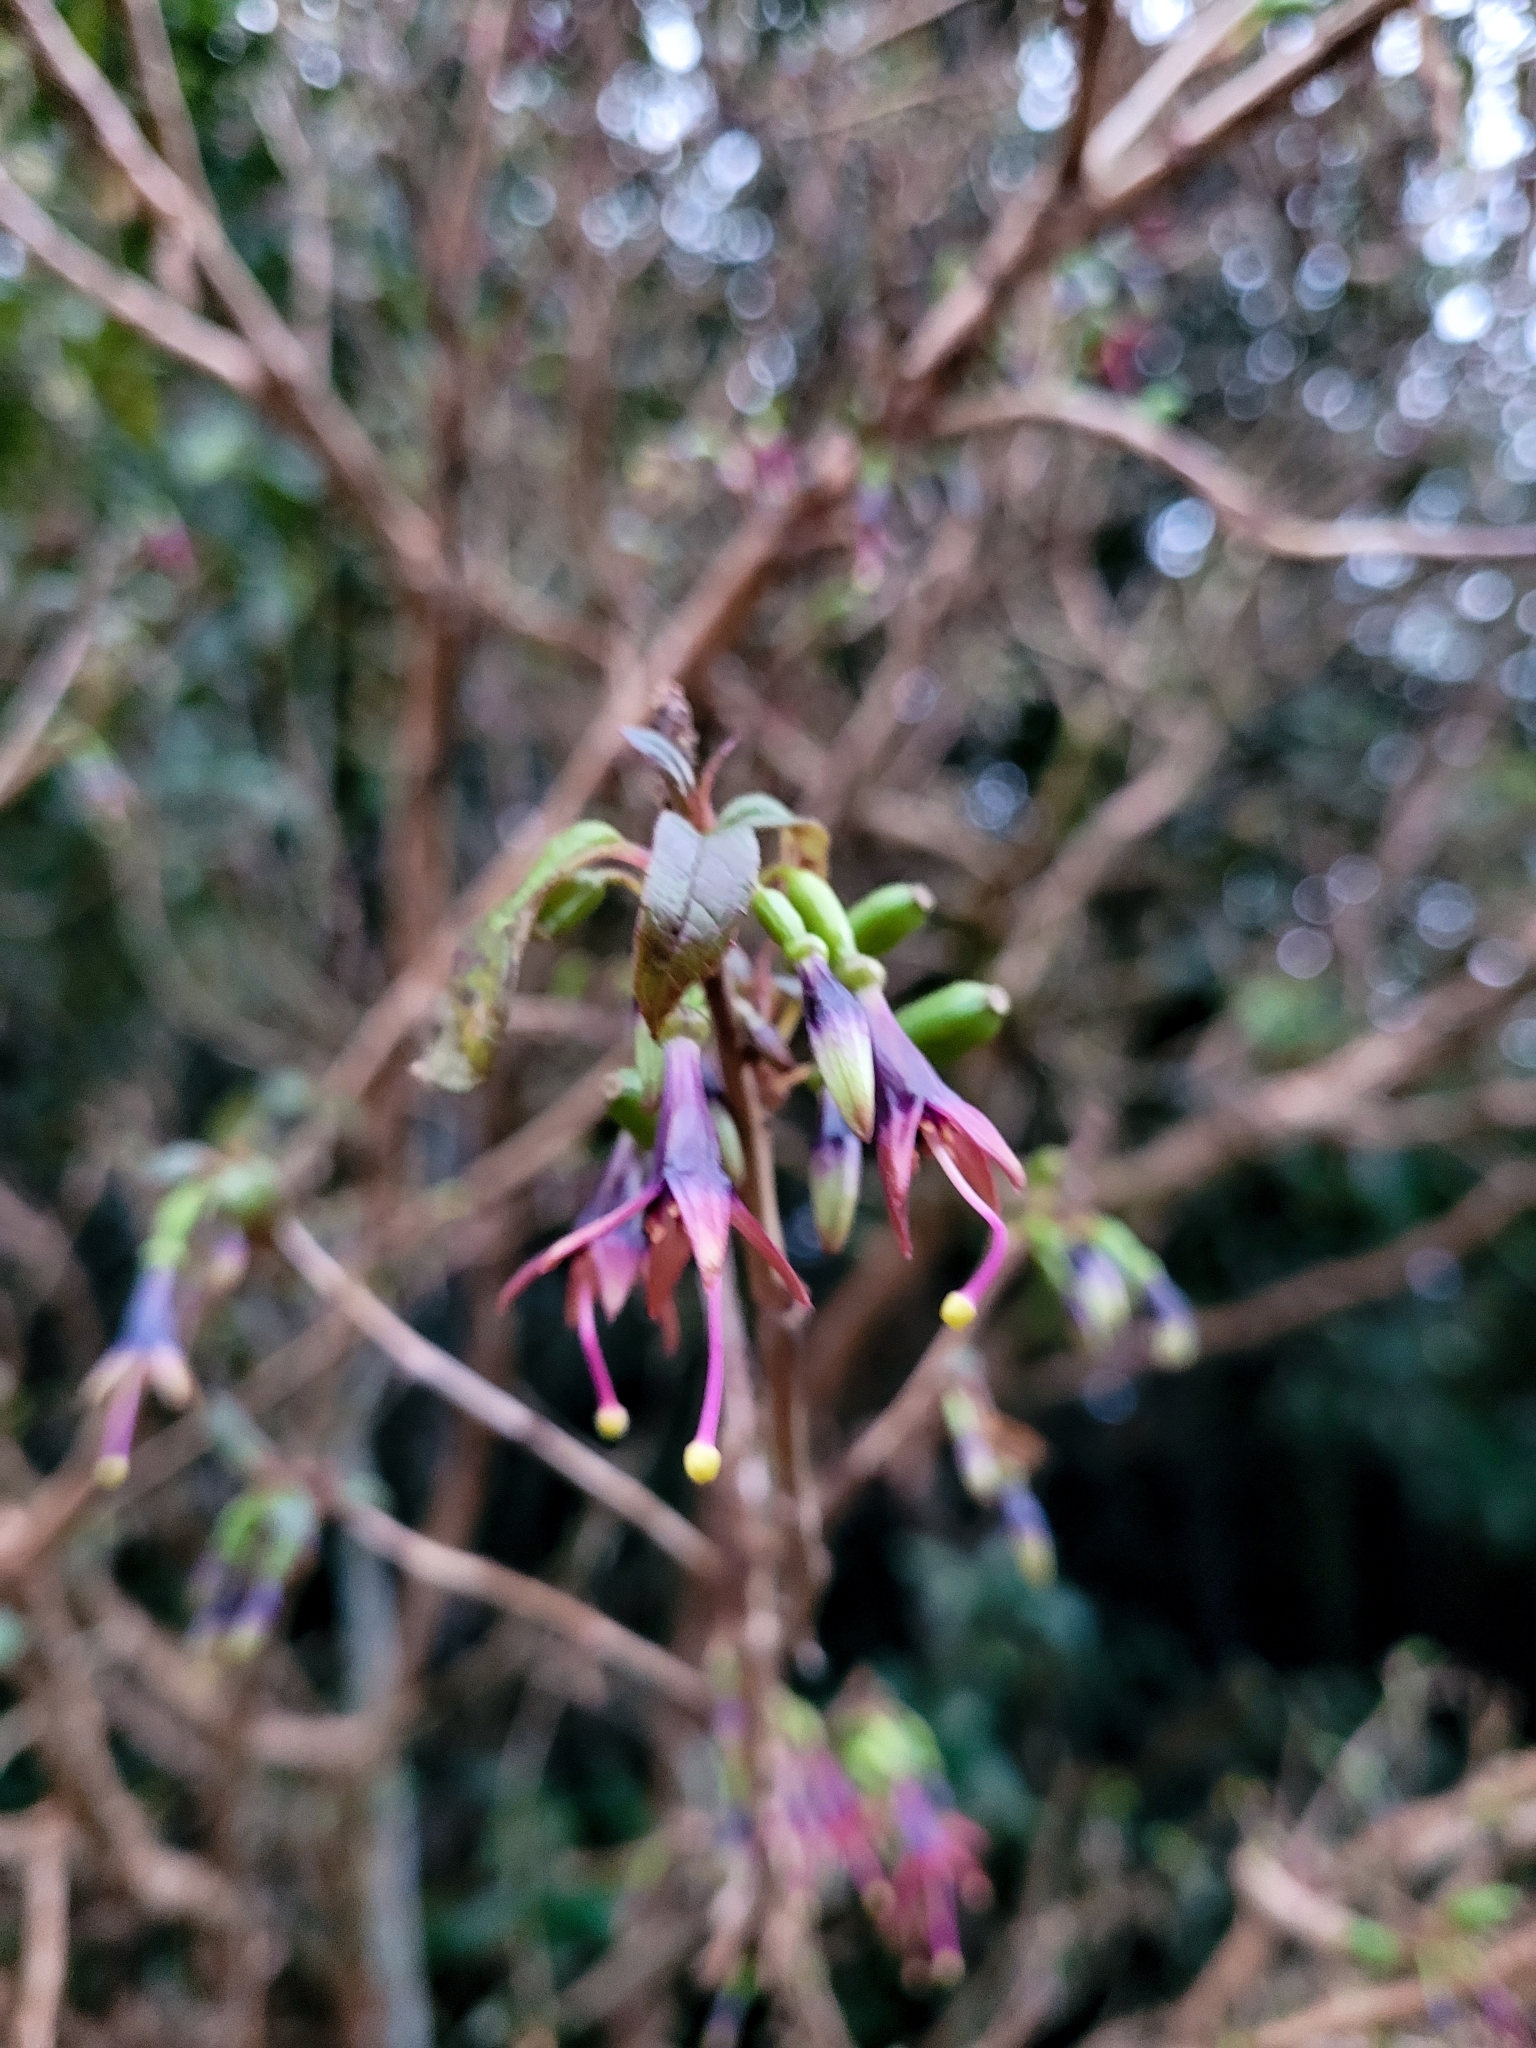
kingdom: Plantae
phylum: Tracheophyta
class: Magnoliopsida
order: Myrtales
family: Onagraceae
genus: Fuchsia
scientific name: Fuchsia excorticata
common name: Tree fuchsia
